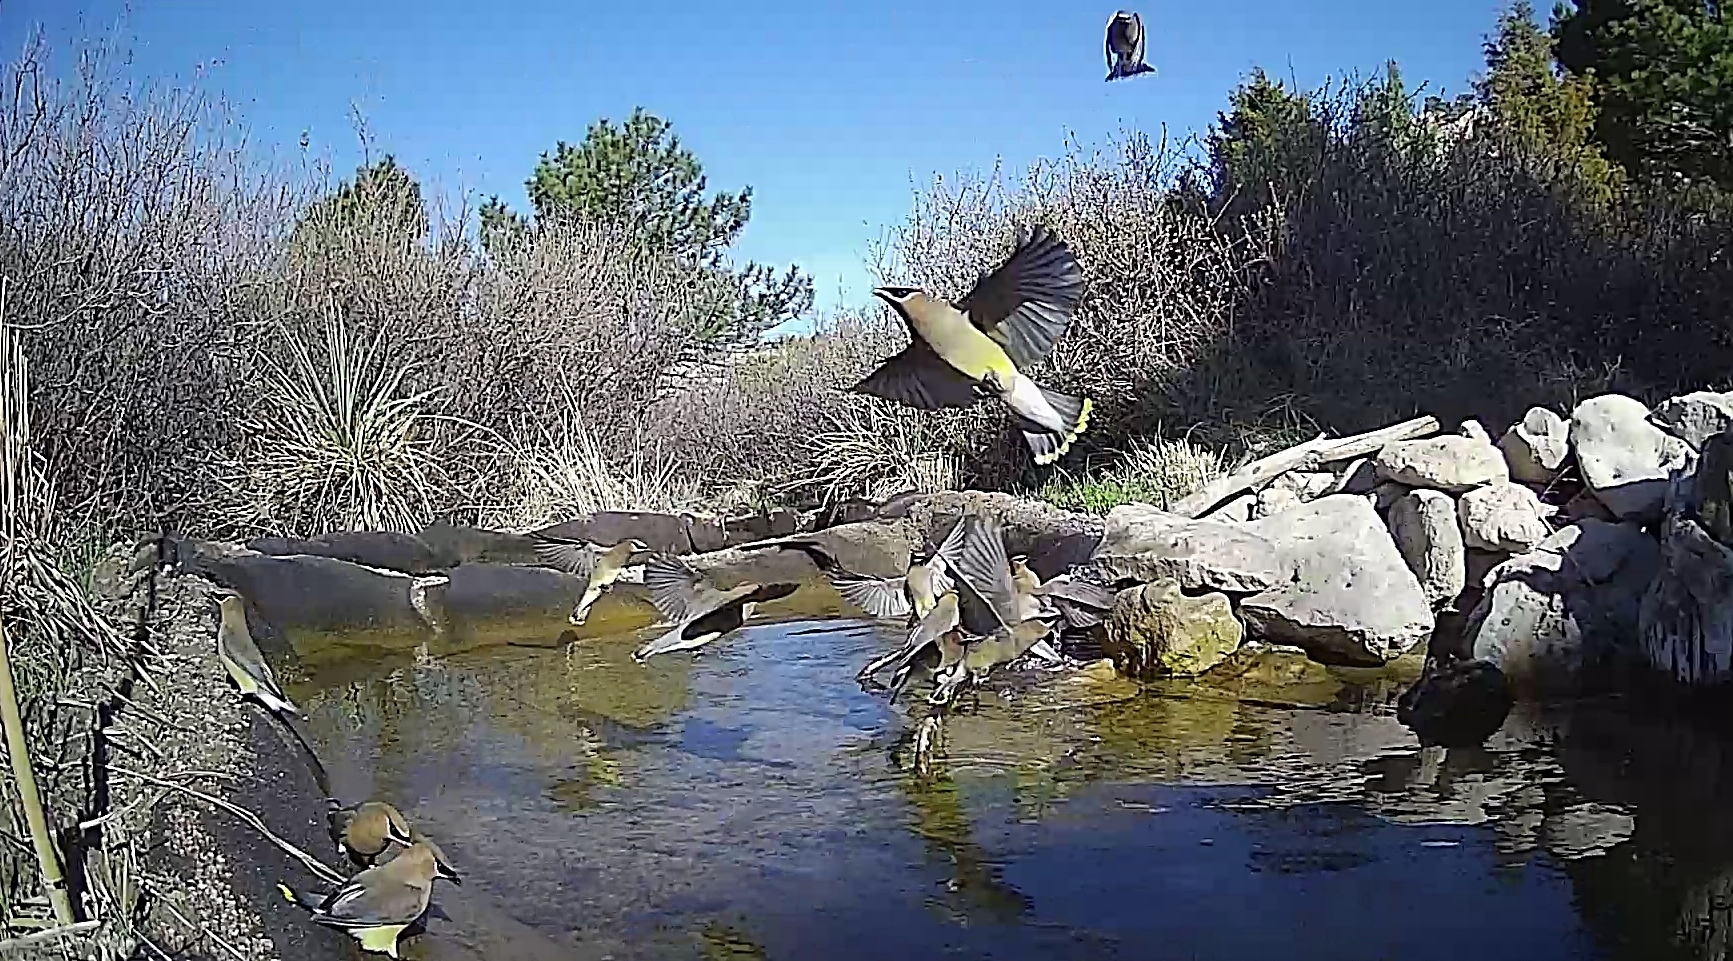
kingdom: Animalia
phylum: Chordata
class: Aves
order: Passeriformes
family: Bombycillidae
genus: Bombycilla
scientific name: Bombycilla cedrorum
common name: Cedar waxwing
